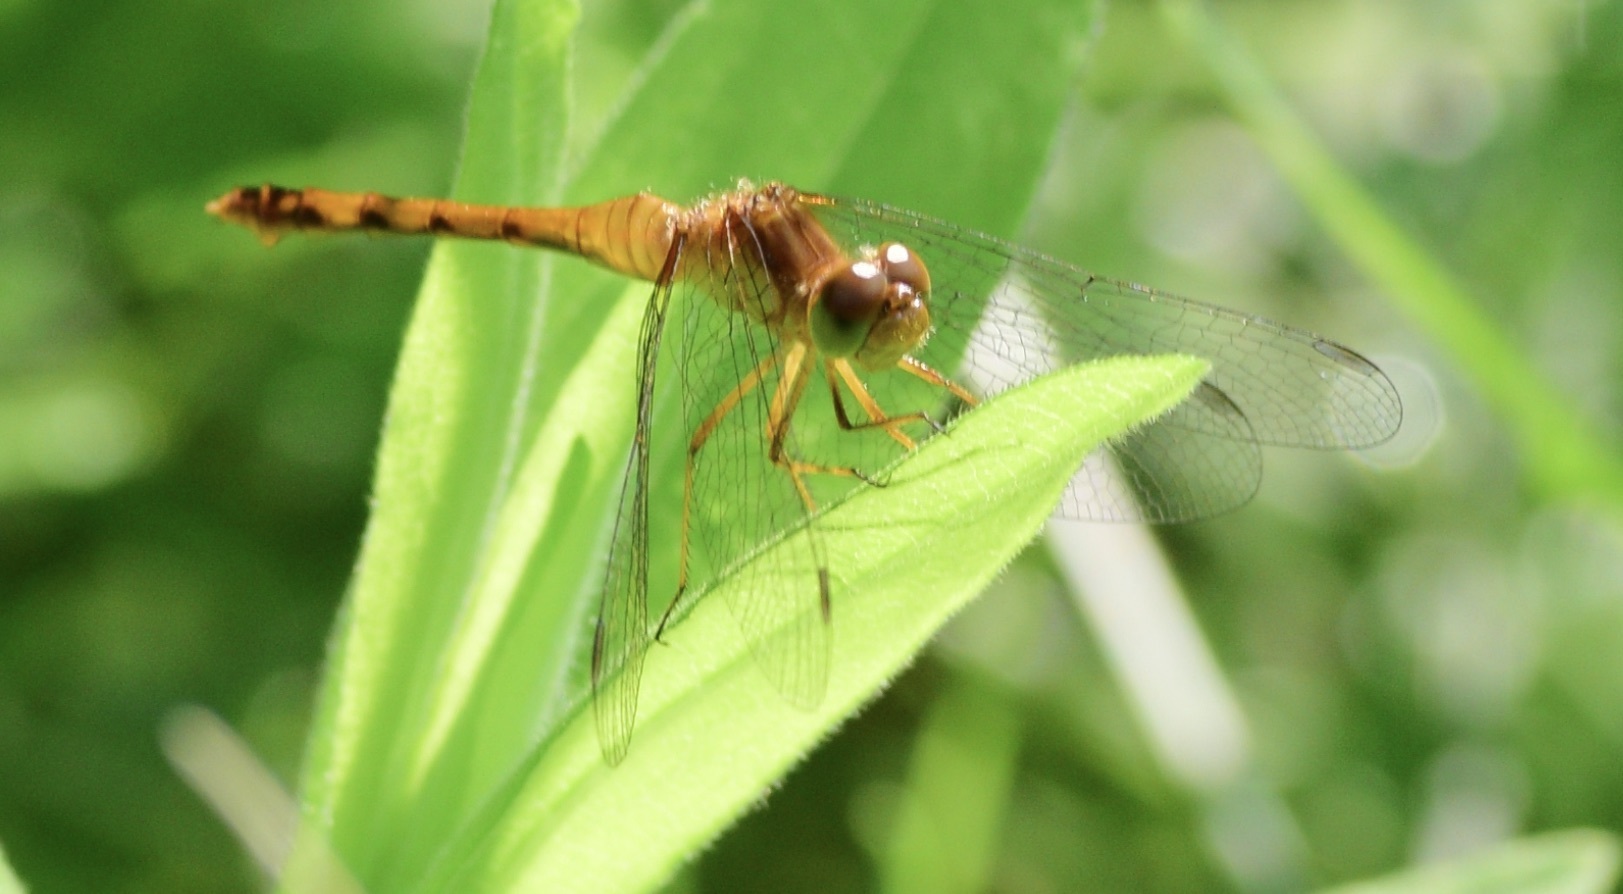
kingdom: Animalia
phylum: Arthropoda
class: Insecta
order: Odonata
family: Libellulidae
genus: Sympetrum
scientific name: Sympetrum vicinum
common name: Autumn meadowhawk
